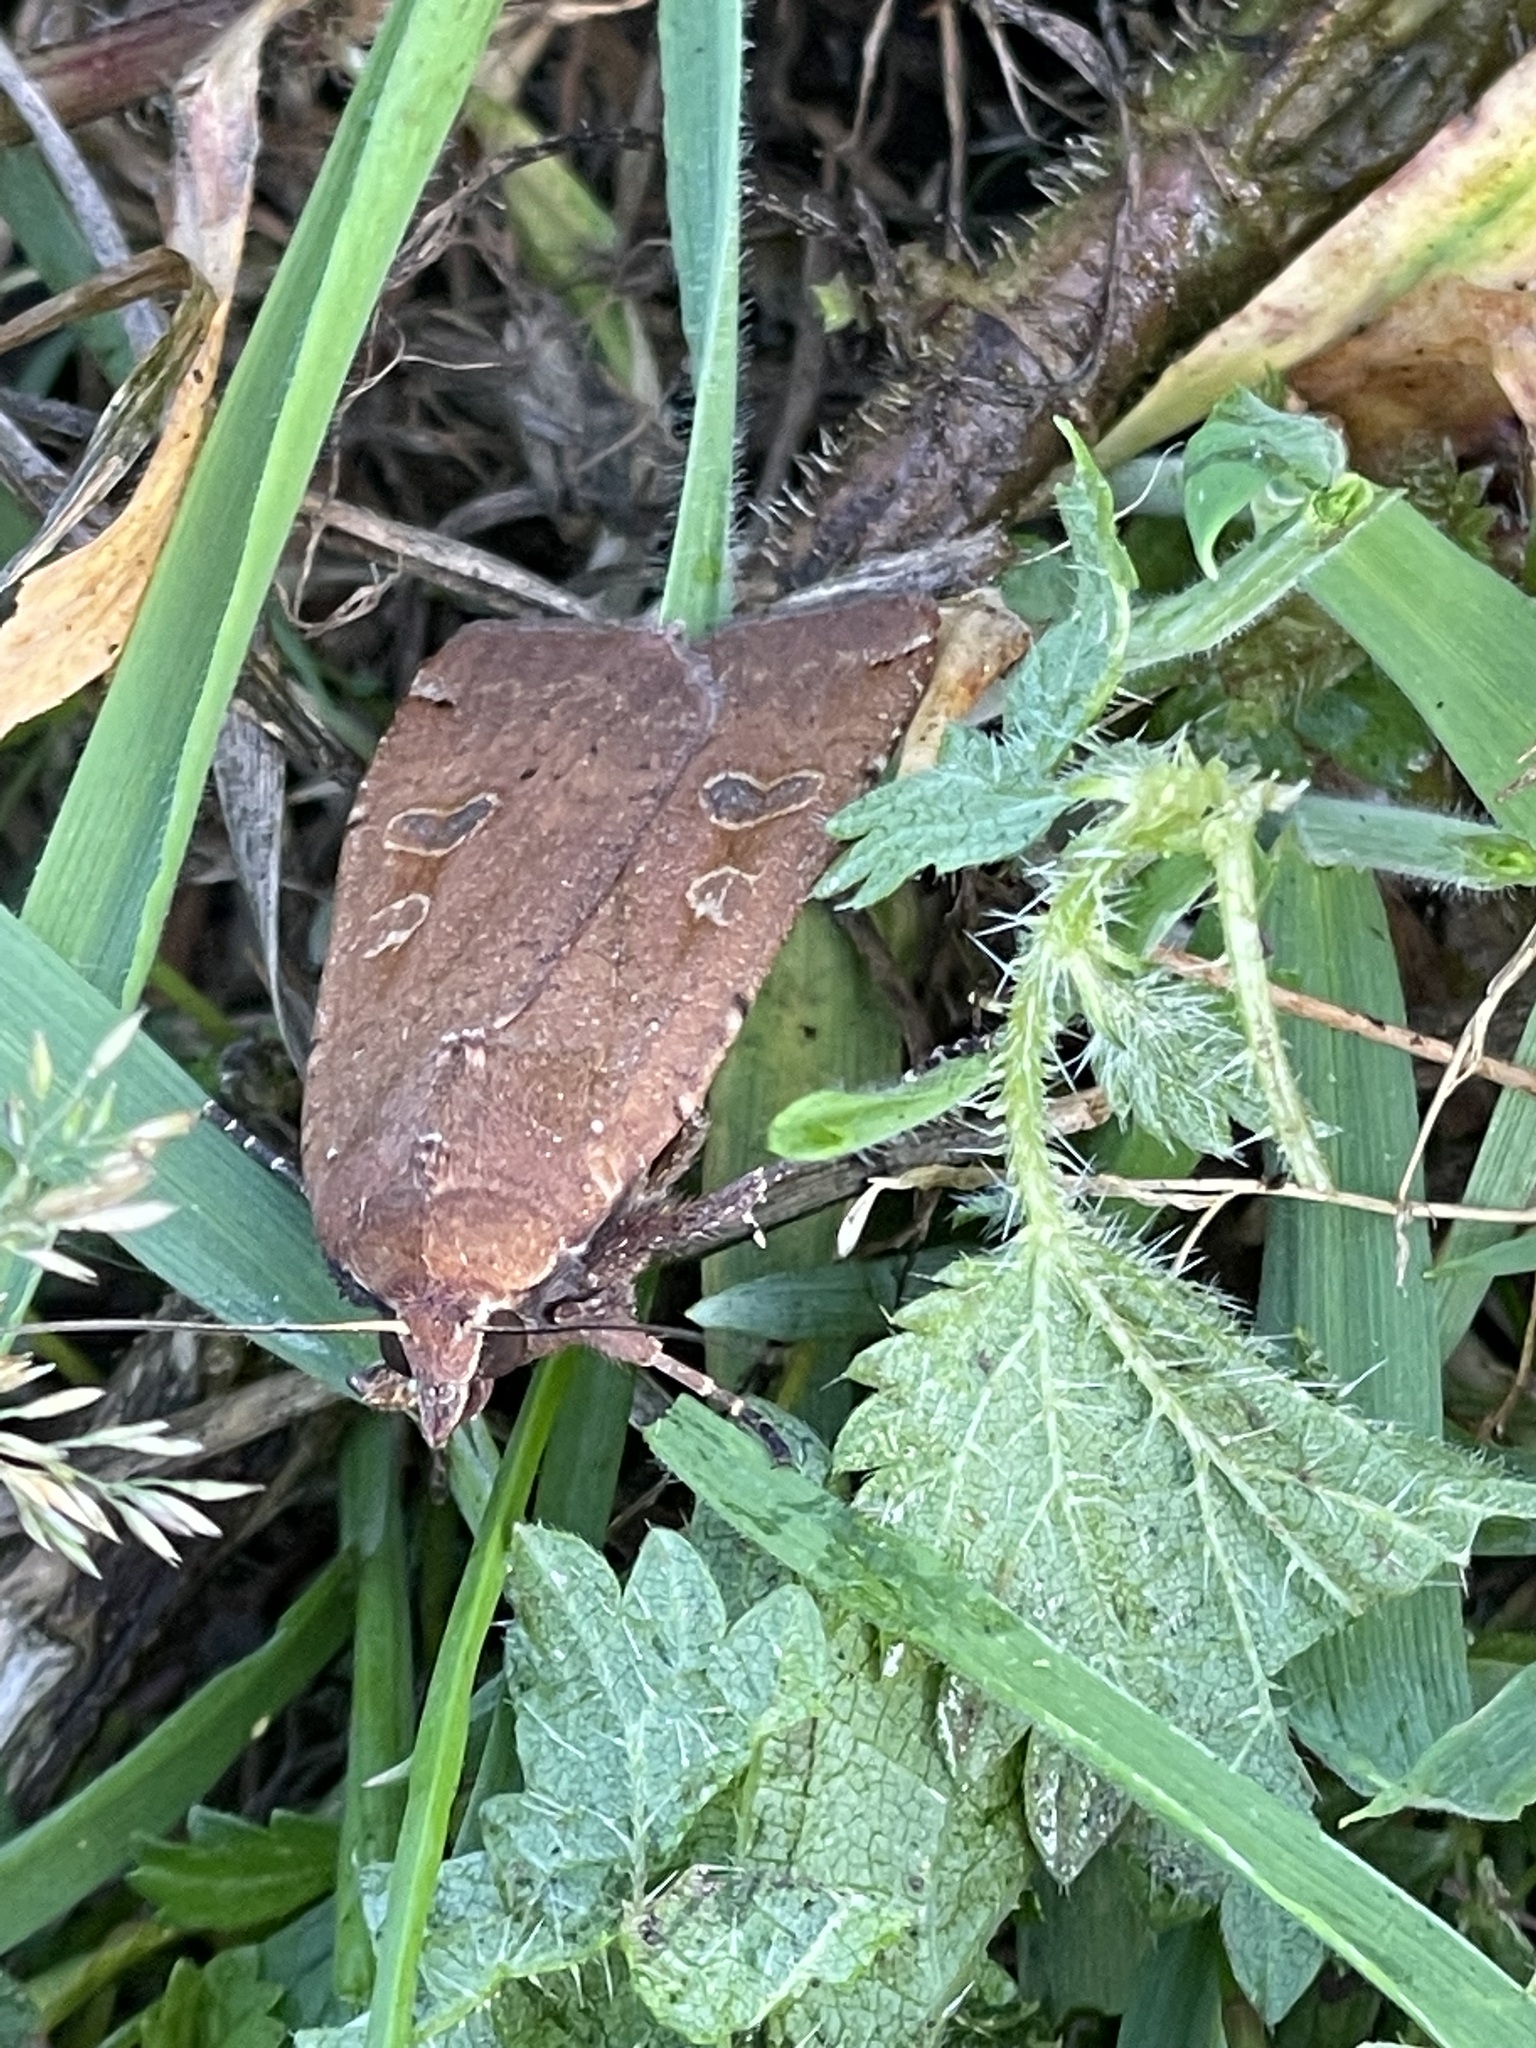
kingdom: Animalia
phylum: Arthropoda
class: Insecta
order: Lepidoptera
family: Noctuidae
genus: Noctua
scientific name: Noctua pronuba
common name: Large yellow underwing
